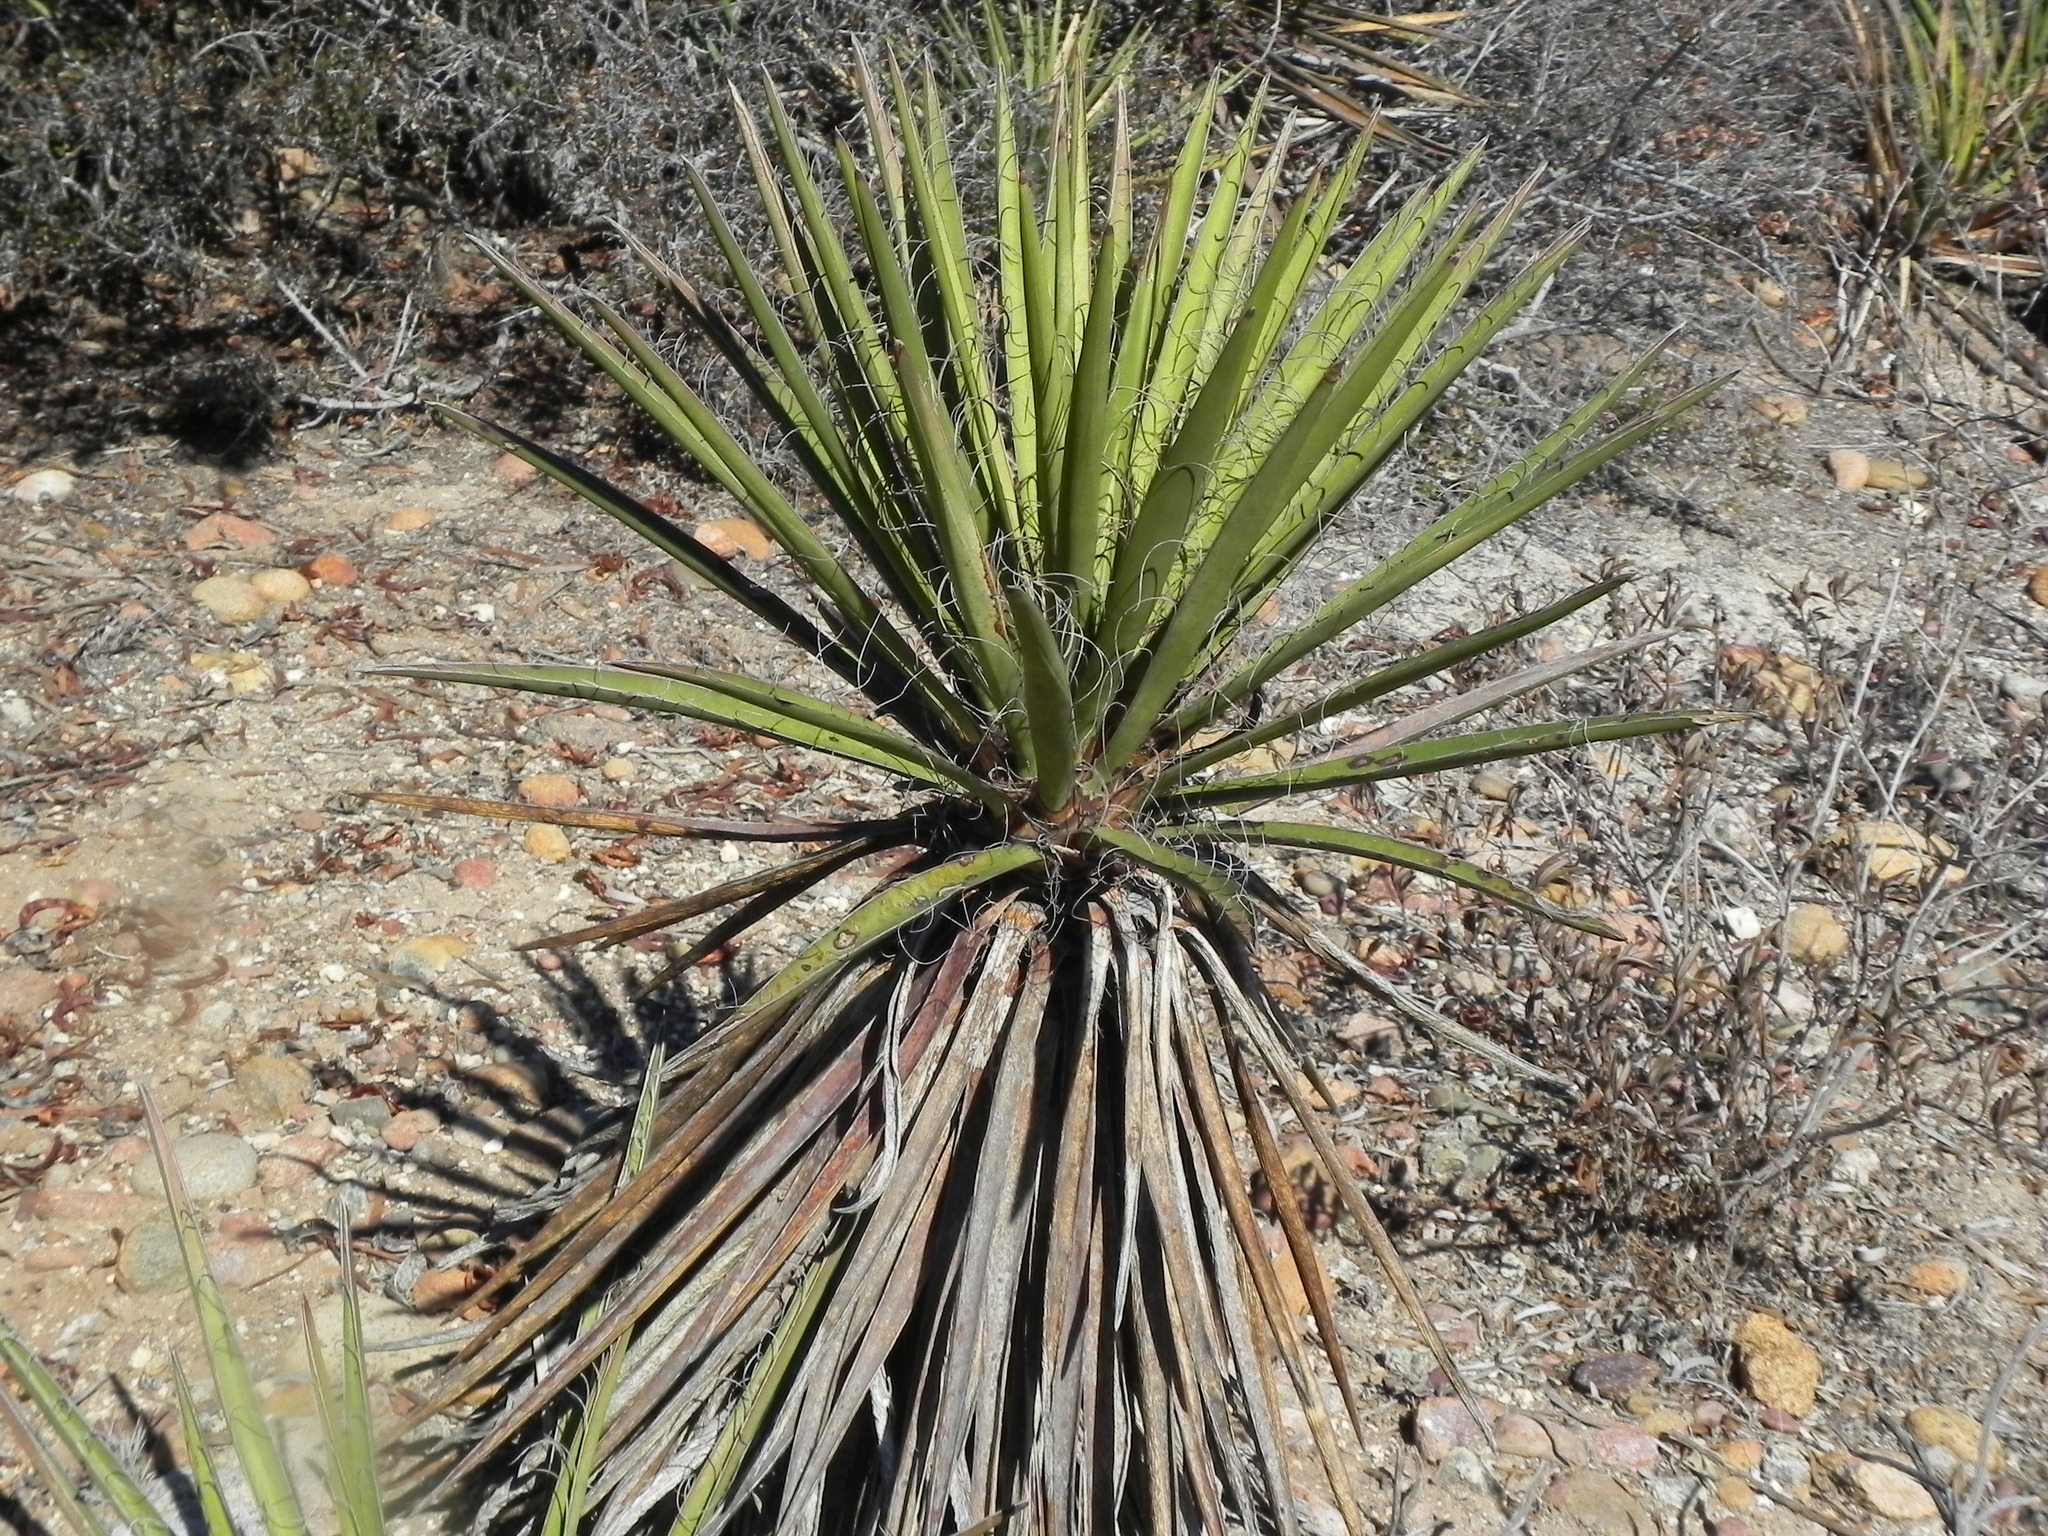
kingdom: Plantae
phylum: Tracheophyta
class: Liliopsida
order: Asparagales
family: Asparagaceae
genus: Yucca
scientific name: Yucca schidigera
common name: Mojave yucca
